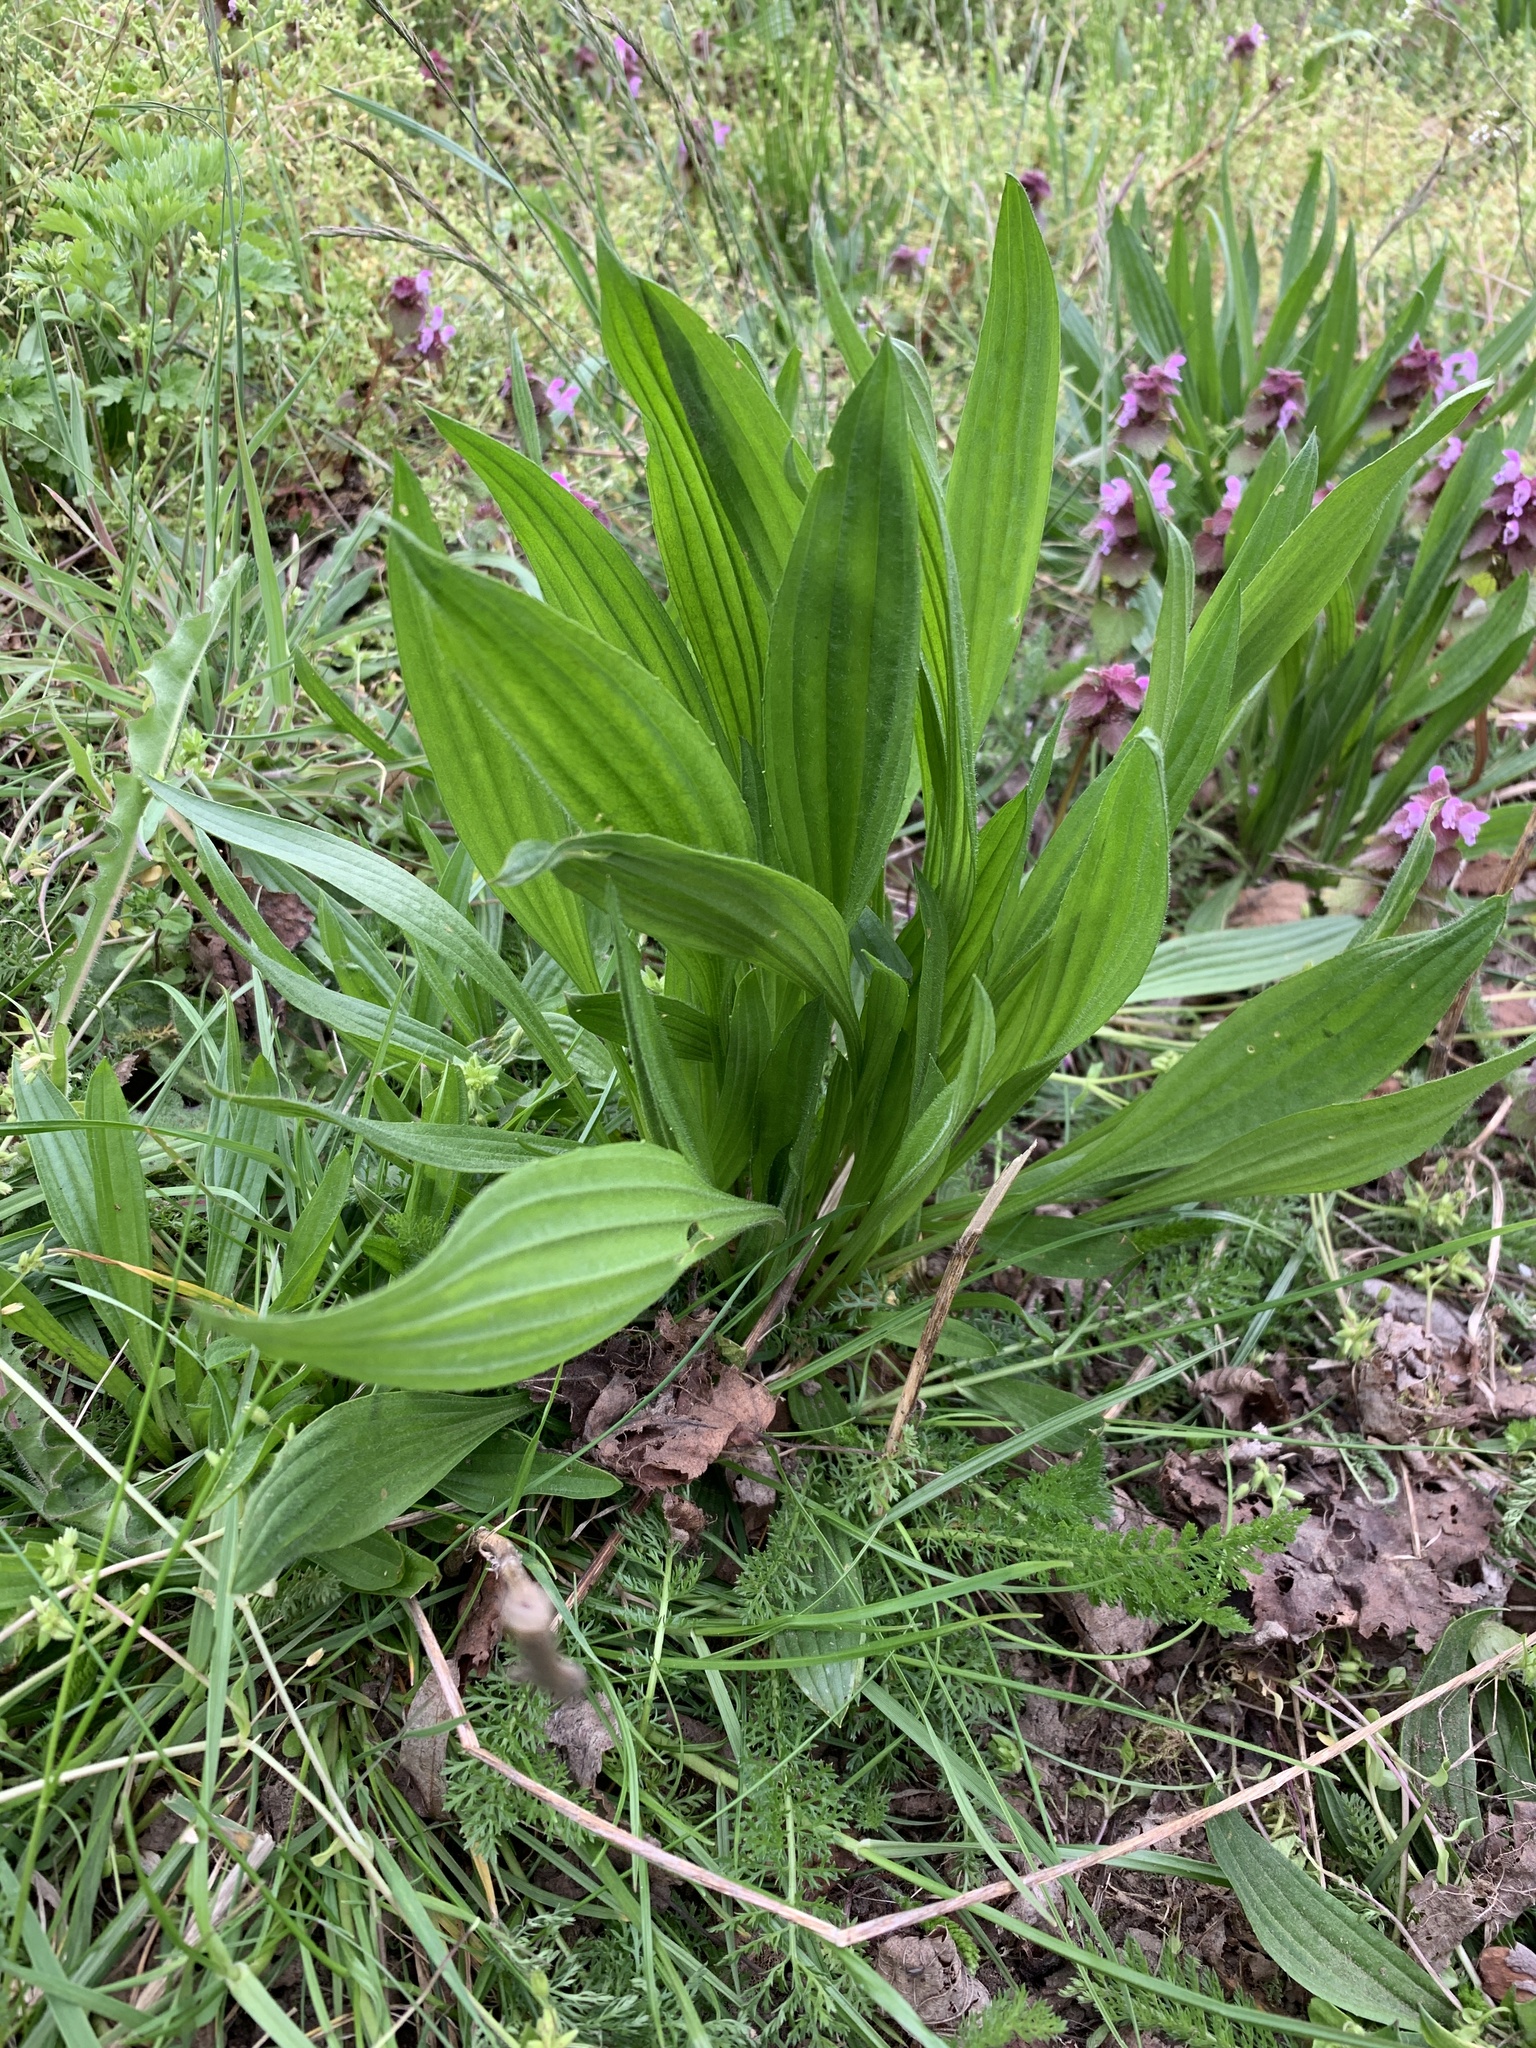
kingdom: Plantae
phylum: Tracheophyta
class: Magnoliopsida
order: Lamiales
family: Plantaginaceae
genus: Plantago
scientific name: Plantago lanceolata
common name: Ribwort plantain
